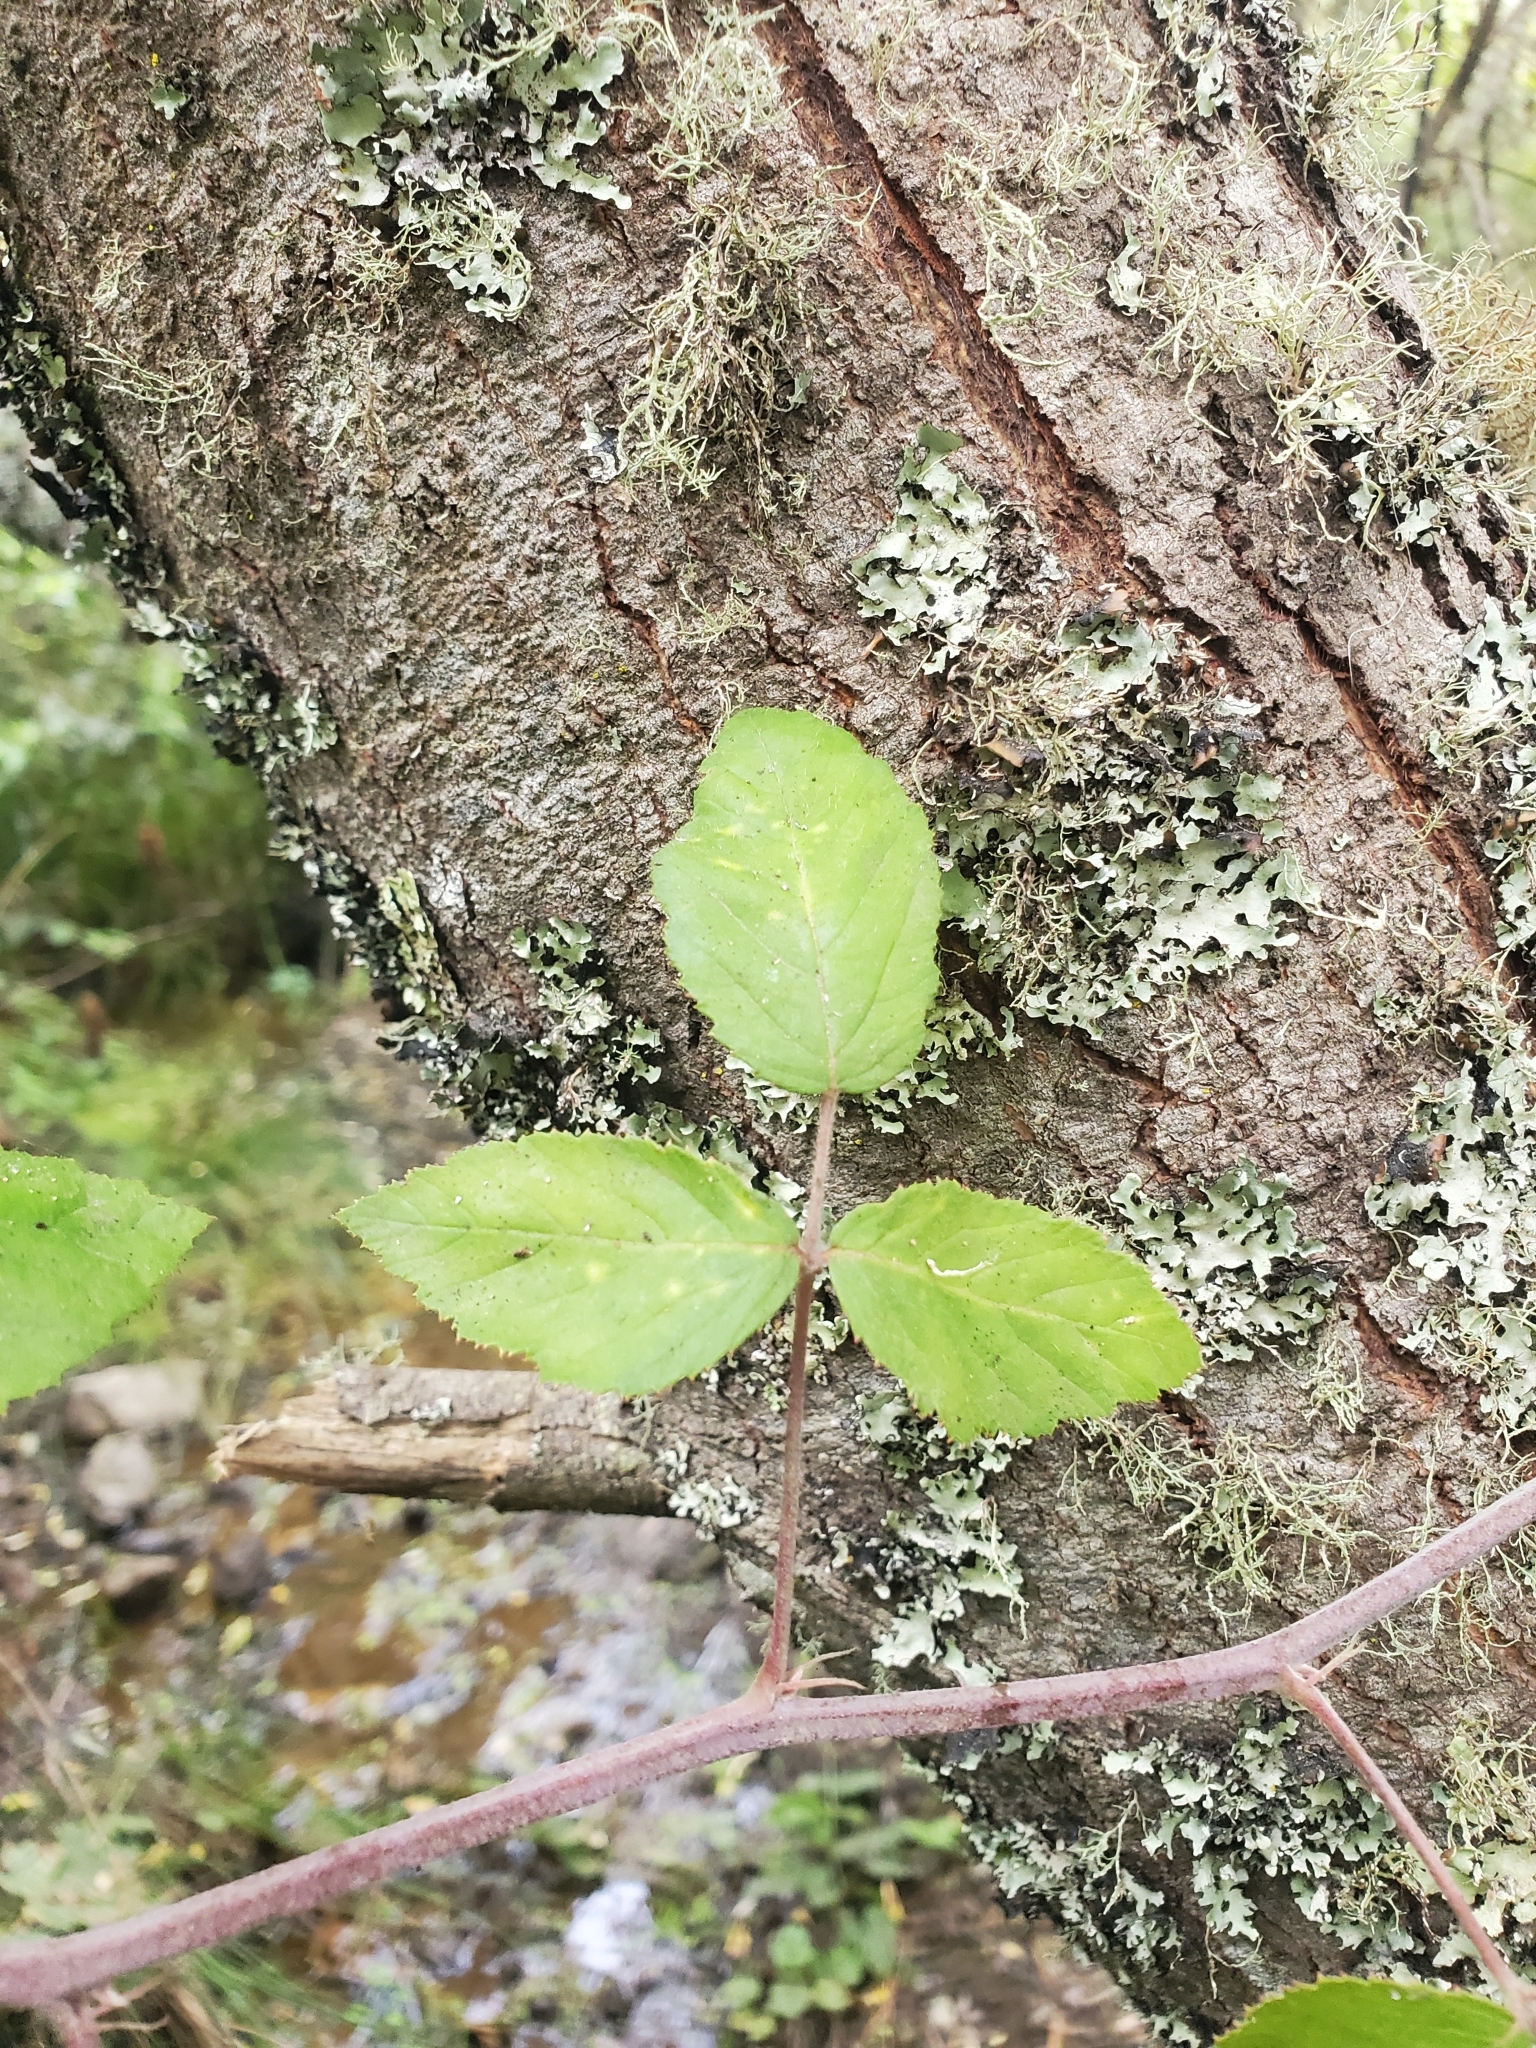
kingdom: Plantae
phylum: Tracheophyta
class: Magnoliopsida
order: Rosales
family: Rosaceae
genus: Rubus
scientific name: Rubus ulmifolius
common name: Elmleaf blackberry
